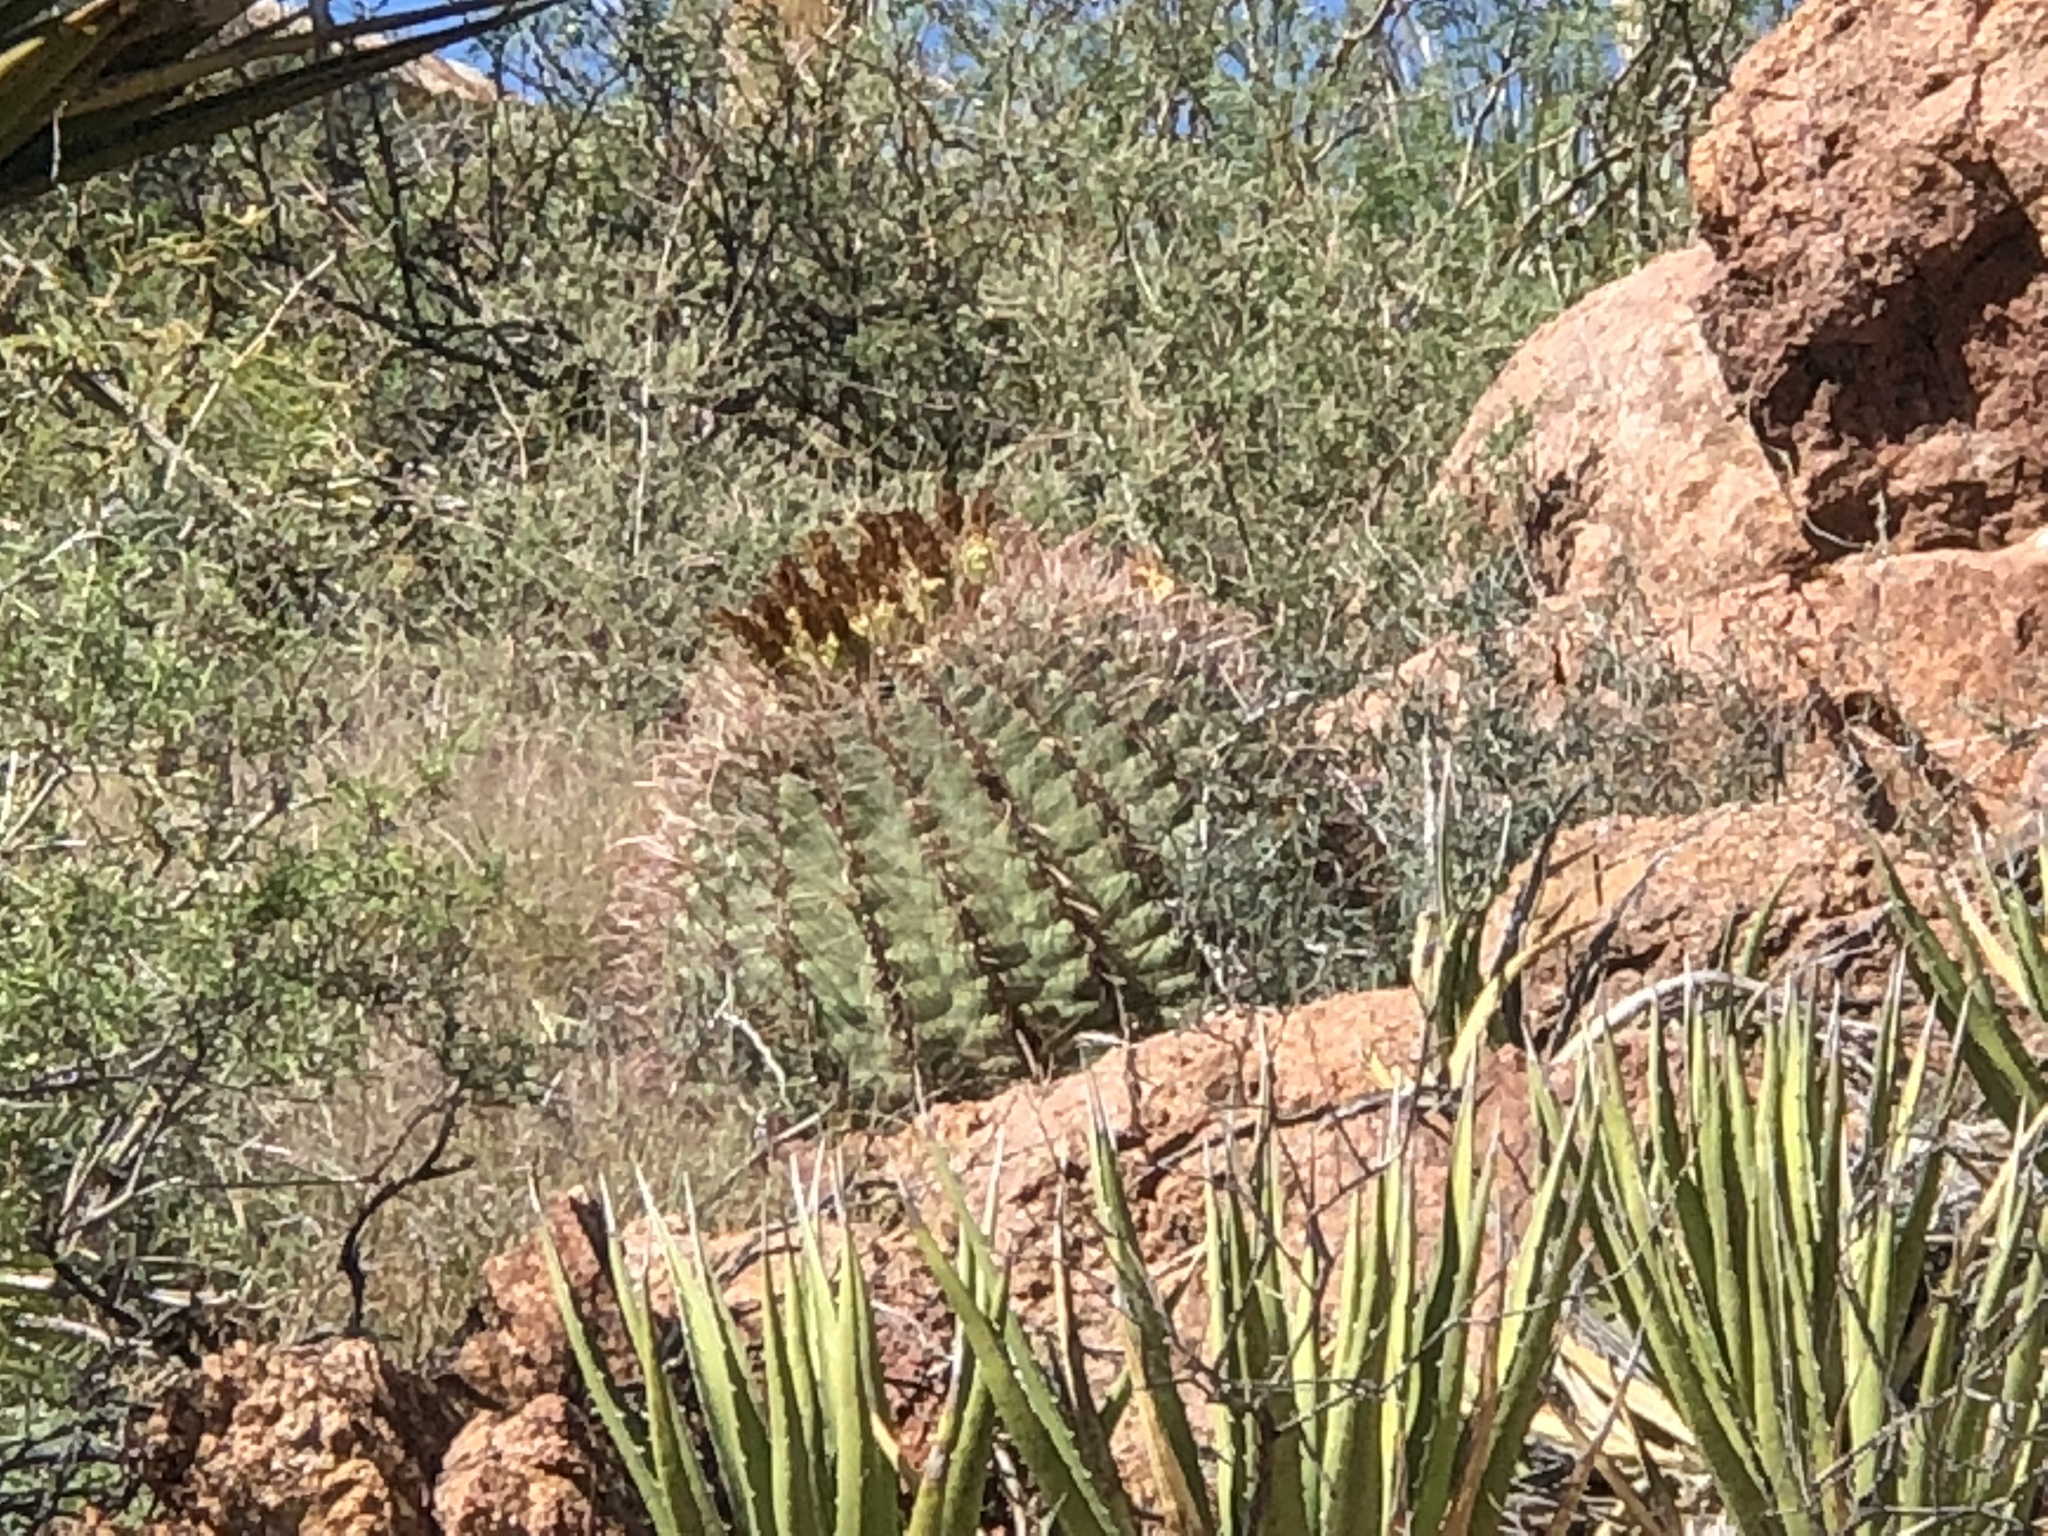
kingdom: Plantae
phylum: Tracheophyta
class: Magnoliopsida
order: Caryophyllales
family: Cactaceae
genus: Ferocactus
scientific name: Ferocactus wislizeni
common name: Candy barrel cactus
